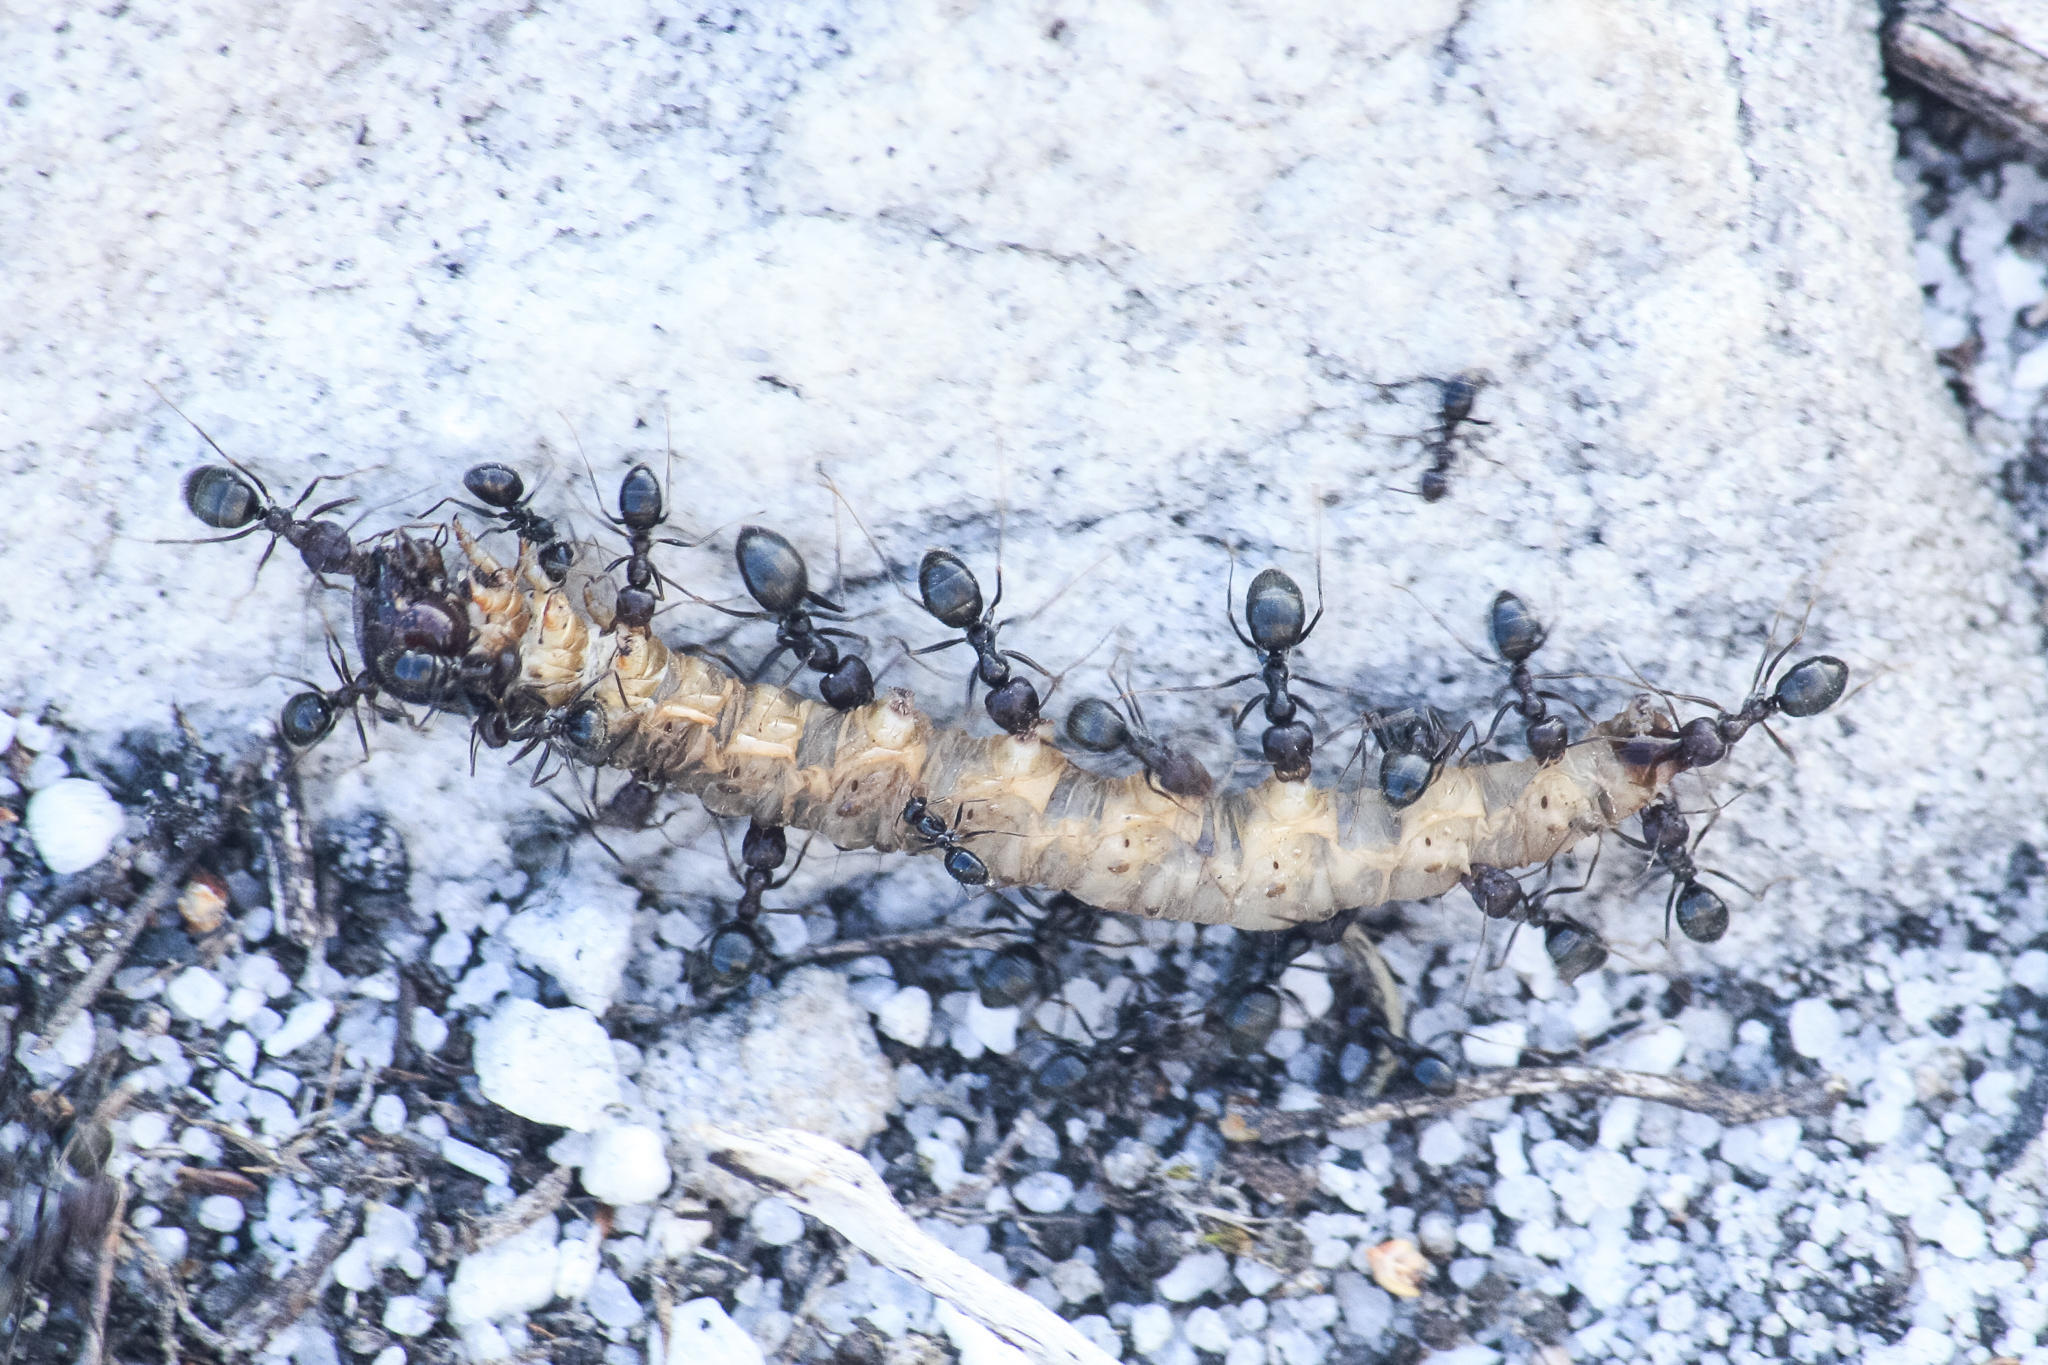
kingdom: Animalia
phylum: Arthropoda
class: Insecta
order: Hymenoptera
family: Formicidae
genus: Anoplolepis
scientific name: Anoplolepis steingroeveri
